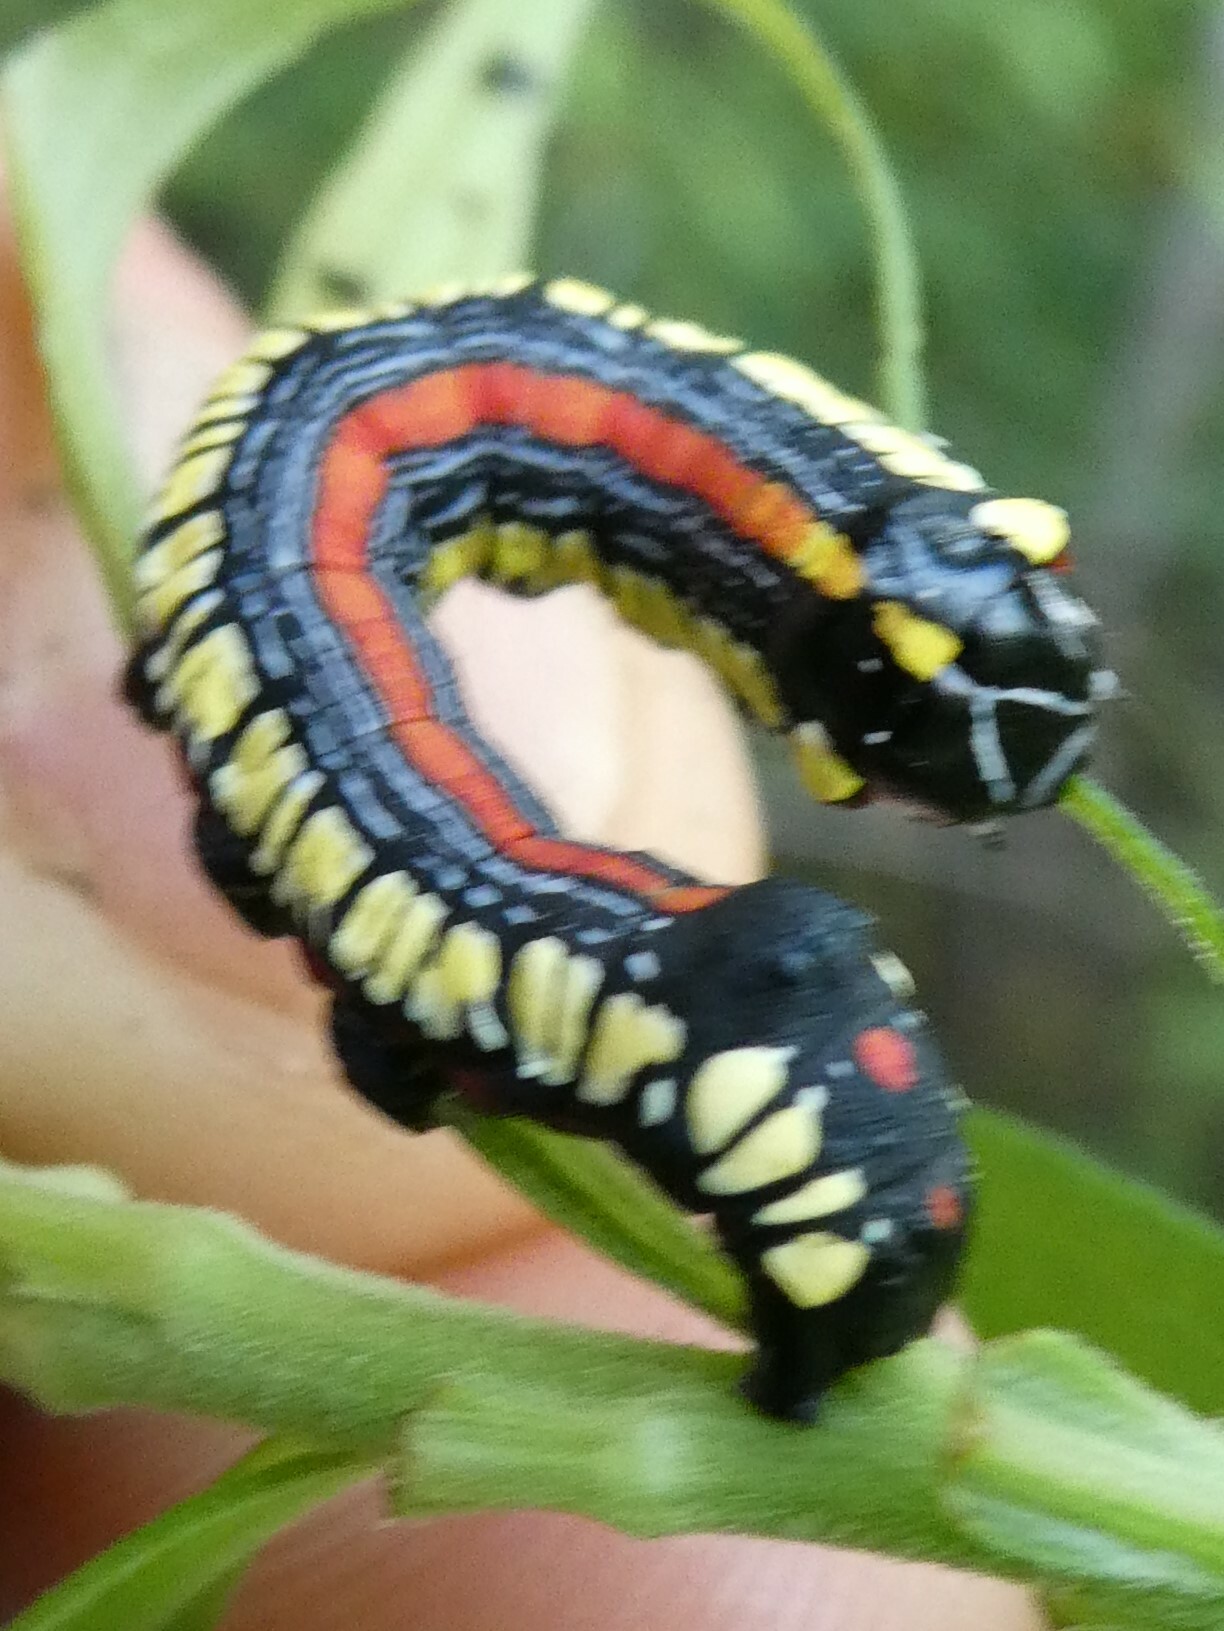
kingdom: Animalia
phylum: Arthropoda
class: Insecta
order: Lepidoptera
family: Noctuidae
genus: Cucullia
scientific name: Cucullia convexipennis
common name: Brown-hooded owlet
